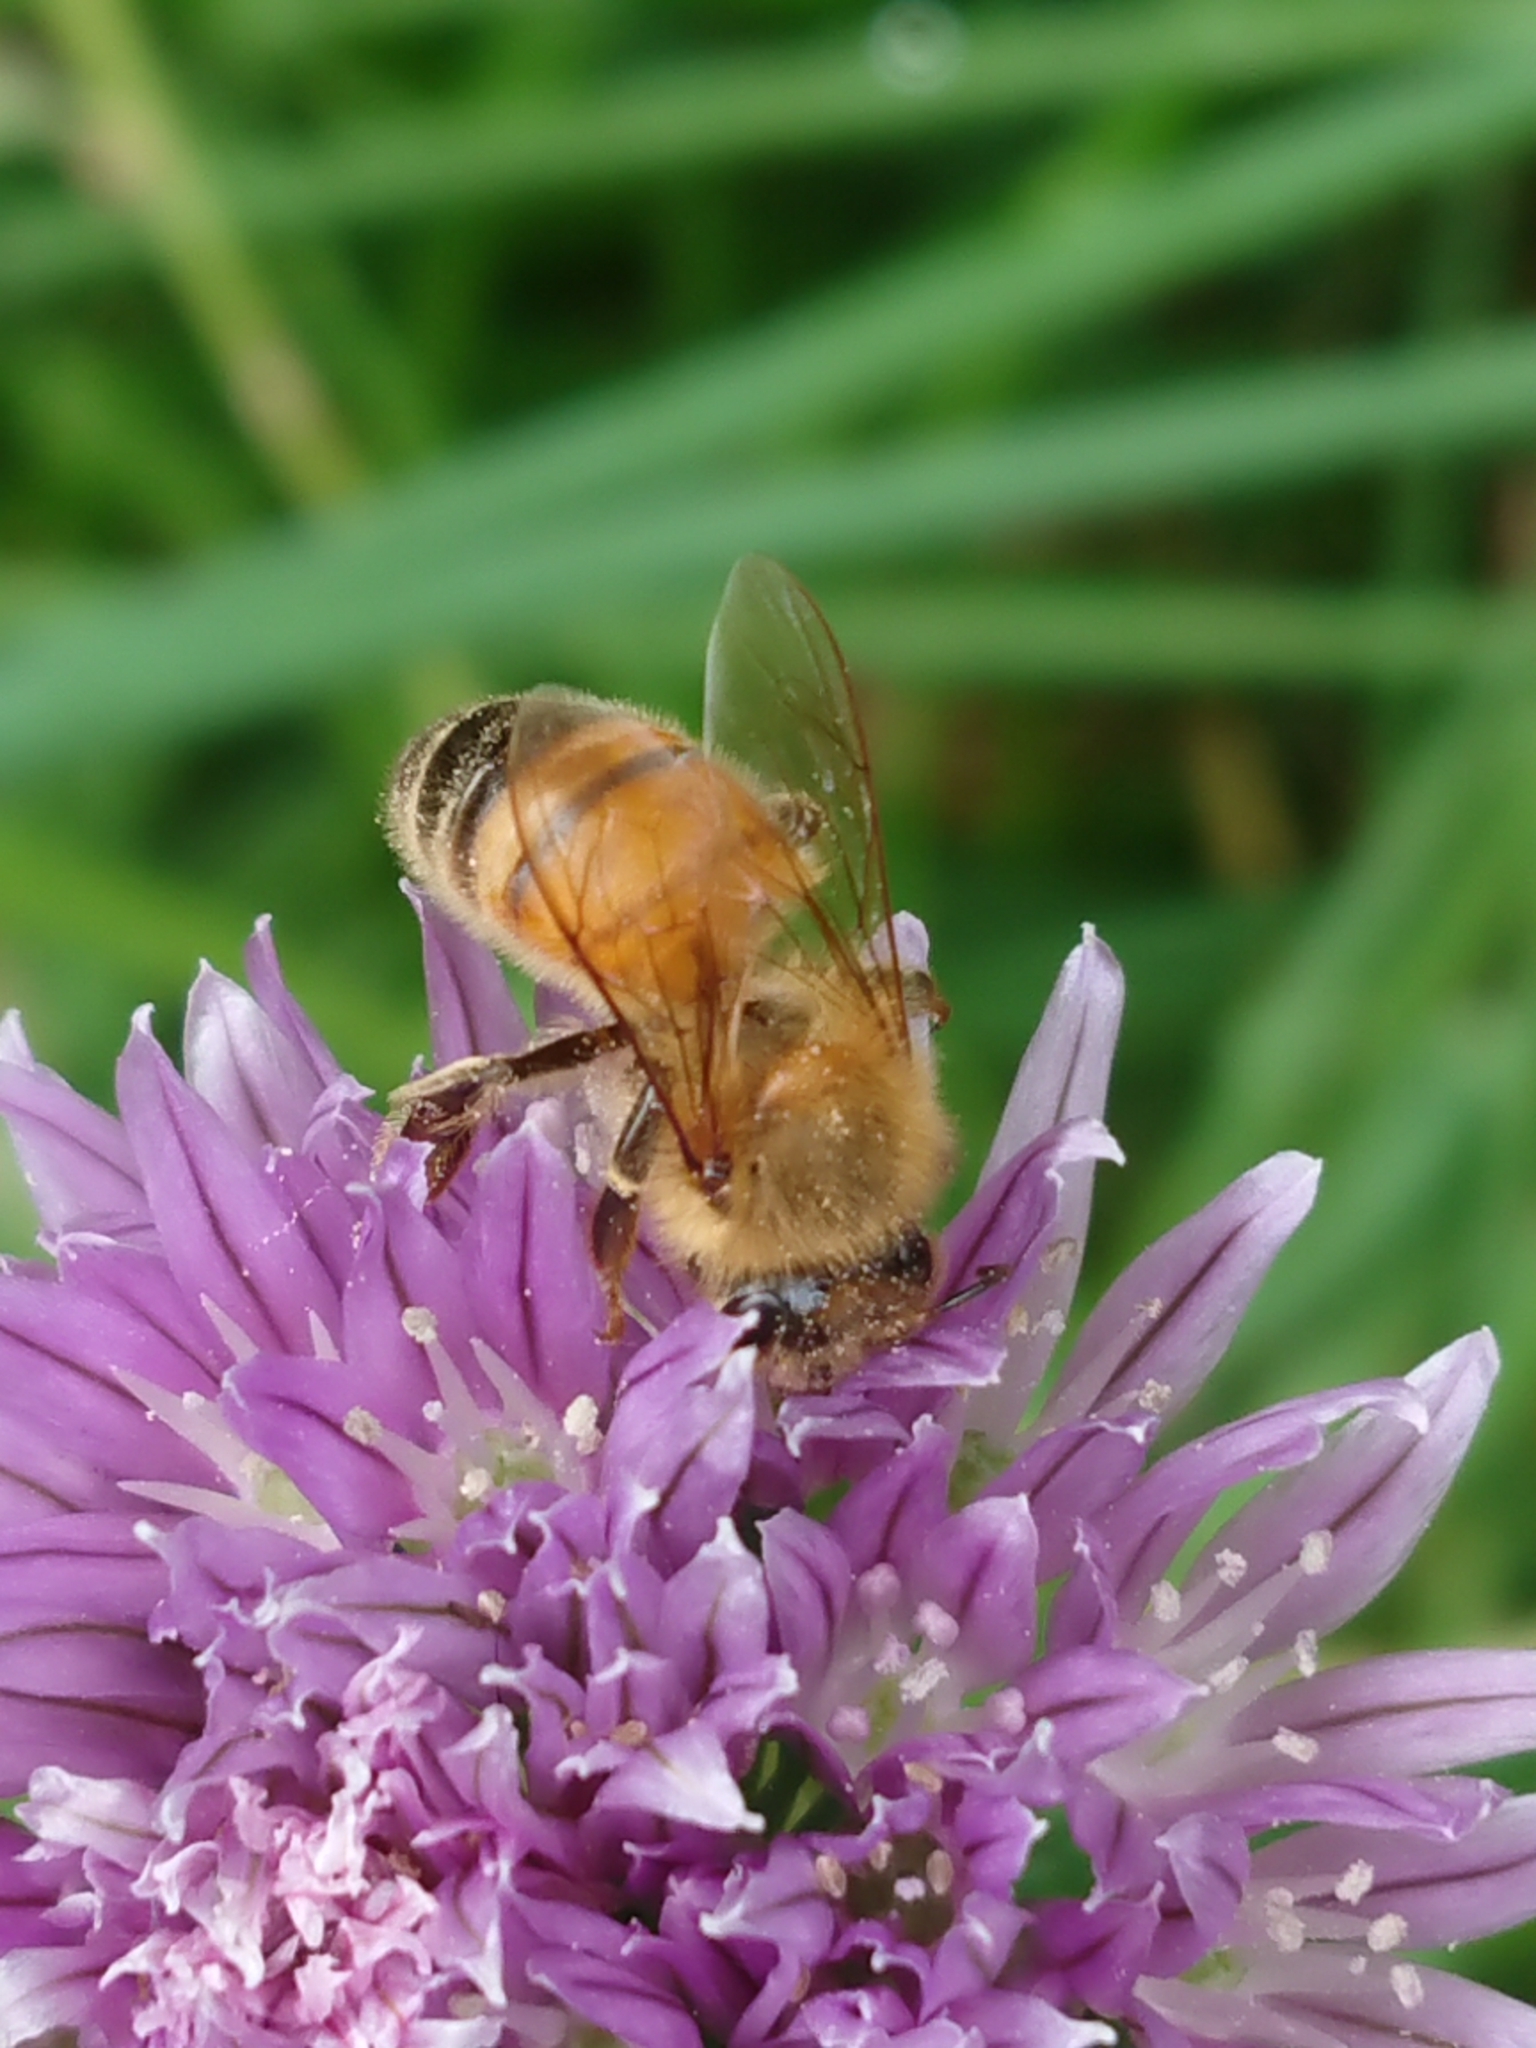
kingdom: Animalia
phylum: Arthropoda
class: Insecta
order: Hymenoptera
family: Apidae
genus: Apis
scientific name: Apis mellifera
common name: Honey bee
